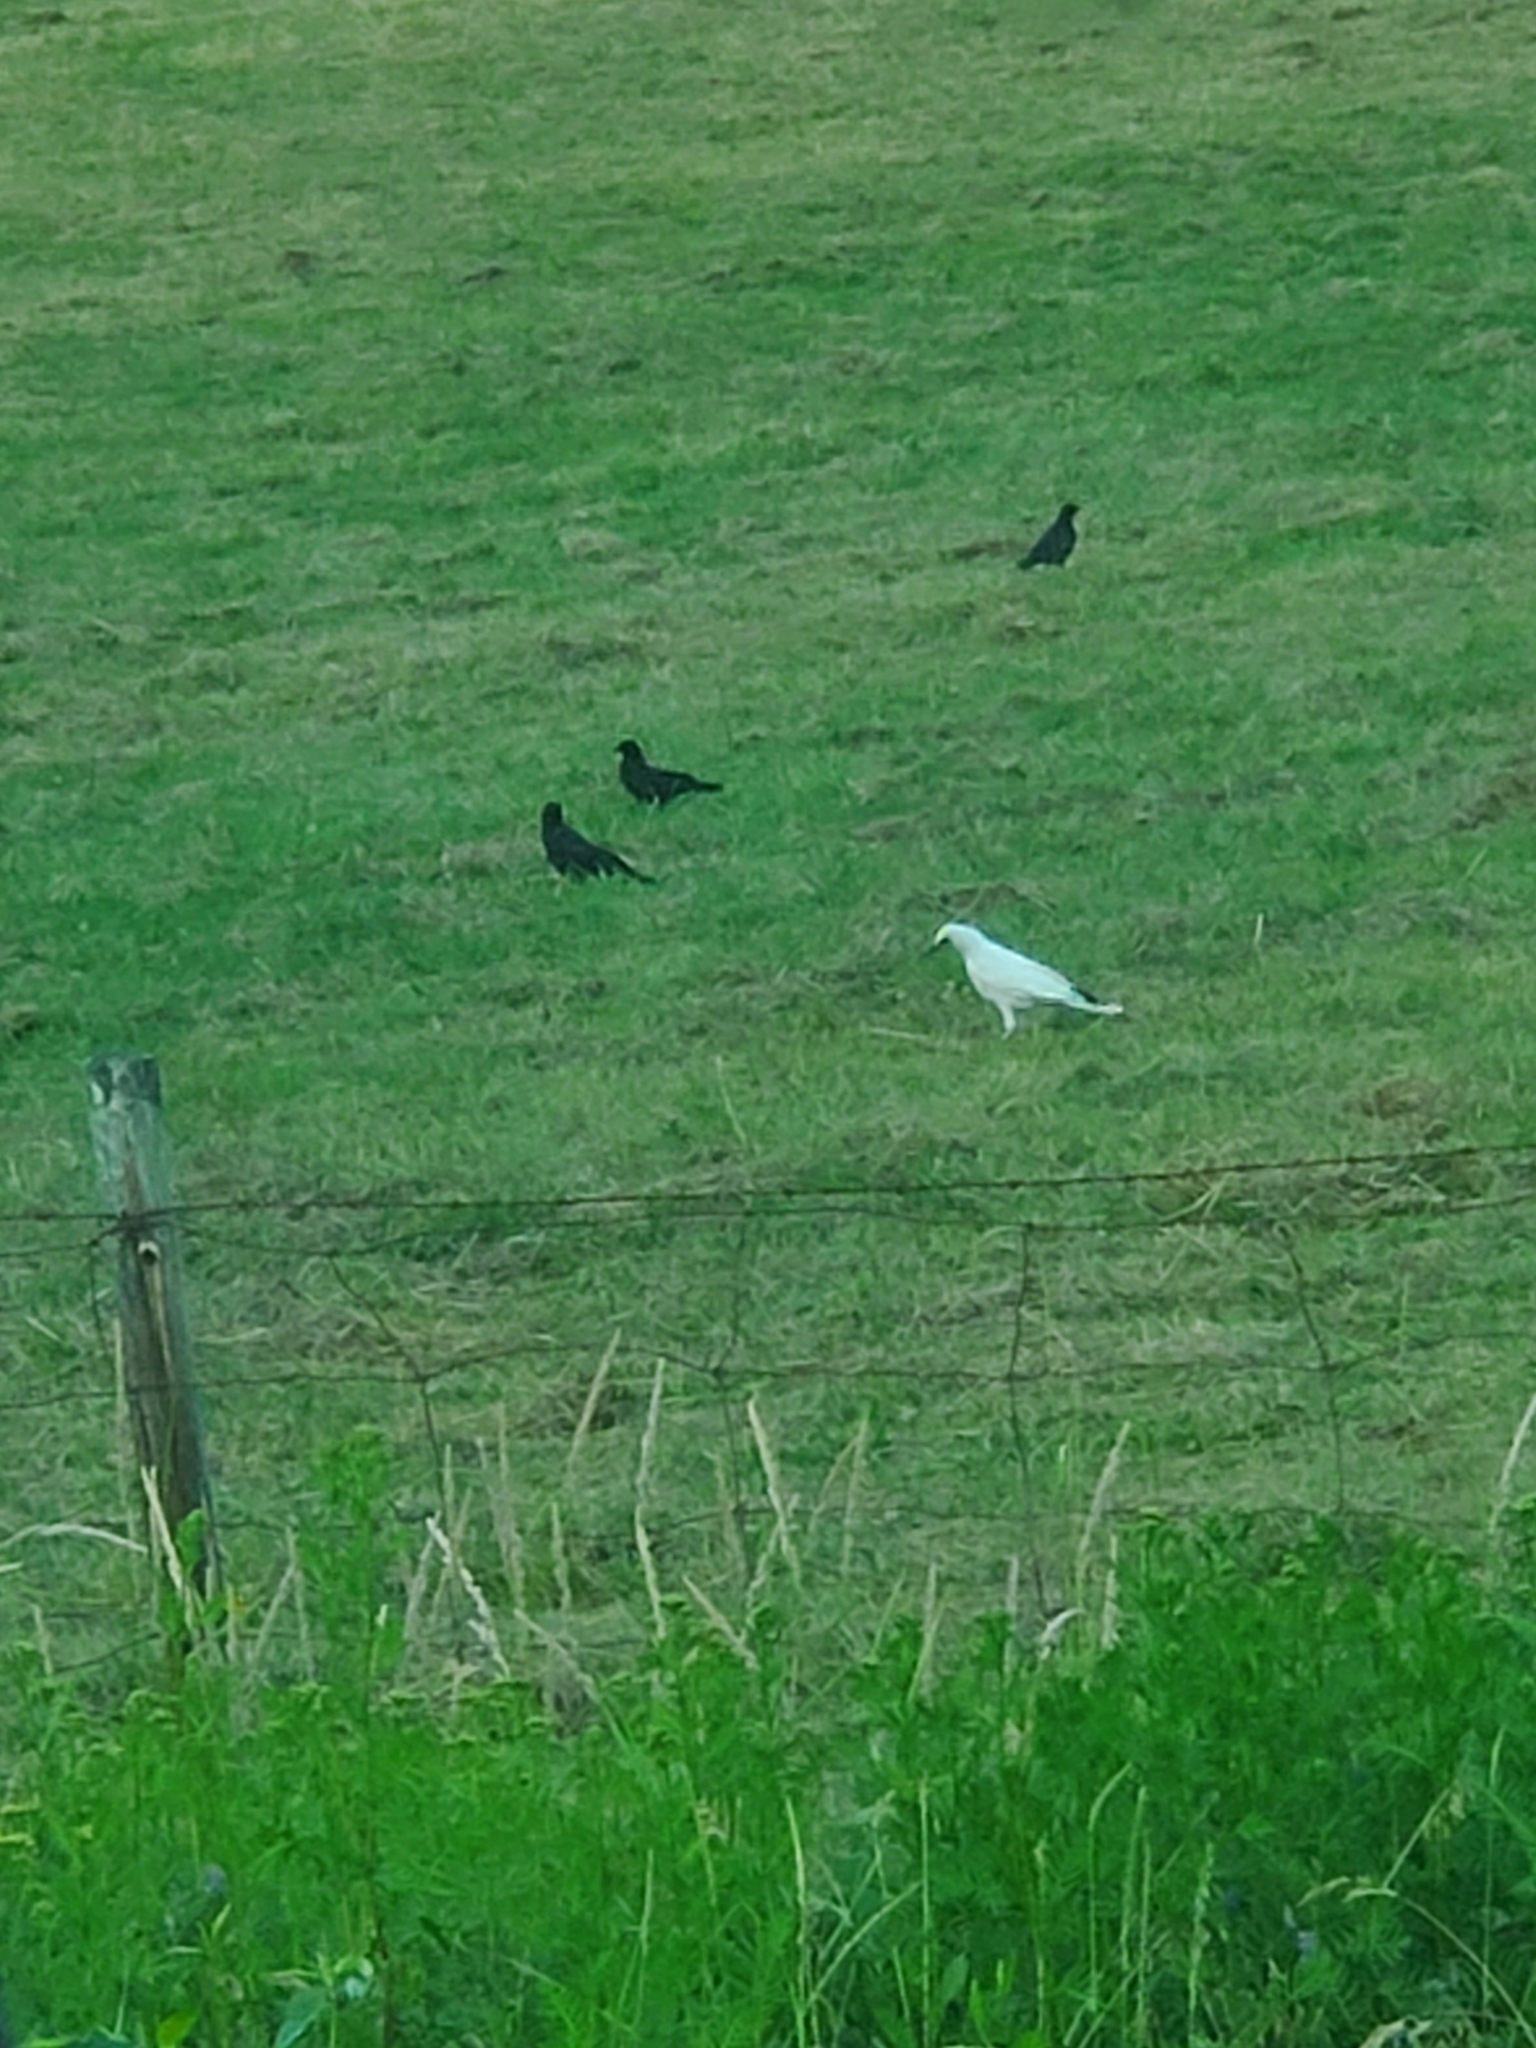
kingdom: Animalia
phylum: Chordata
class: Aves
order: Passeriformes
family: Corvidae
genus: Corvus
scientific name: Corvus brachyrhynchos
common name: American crow
